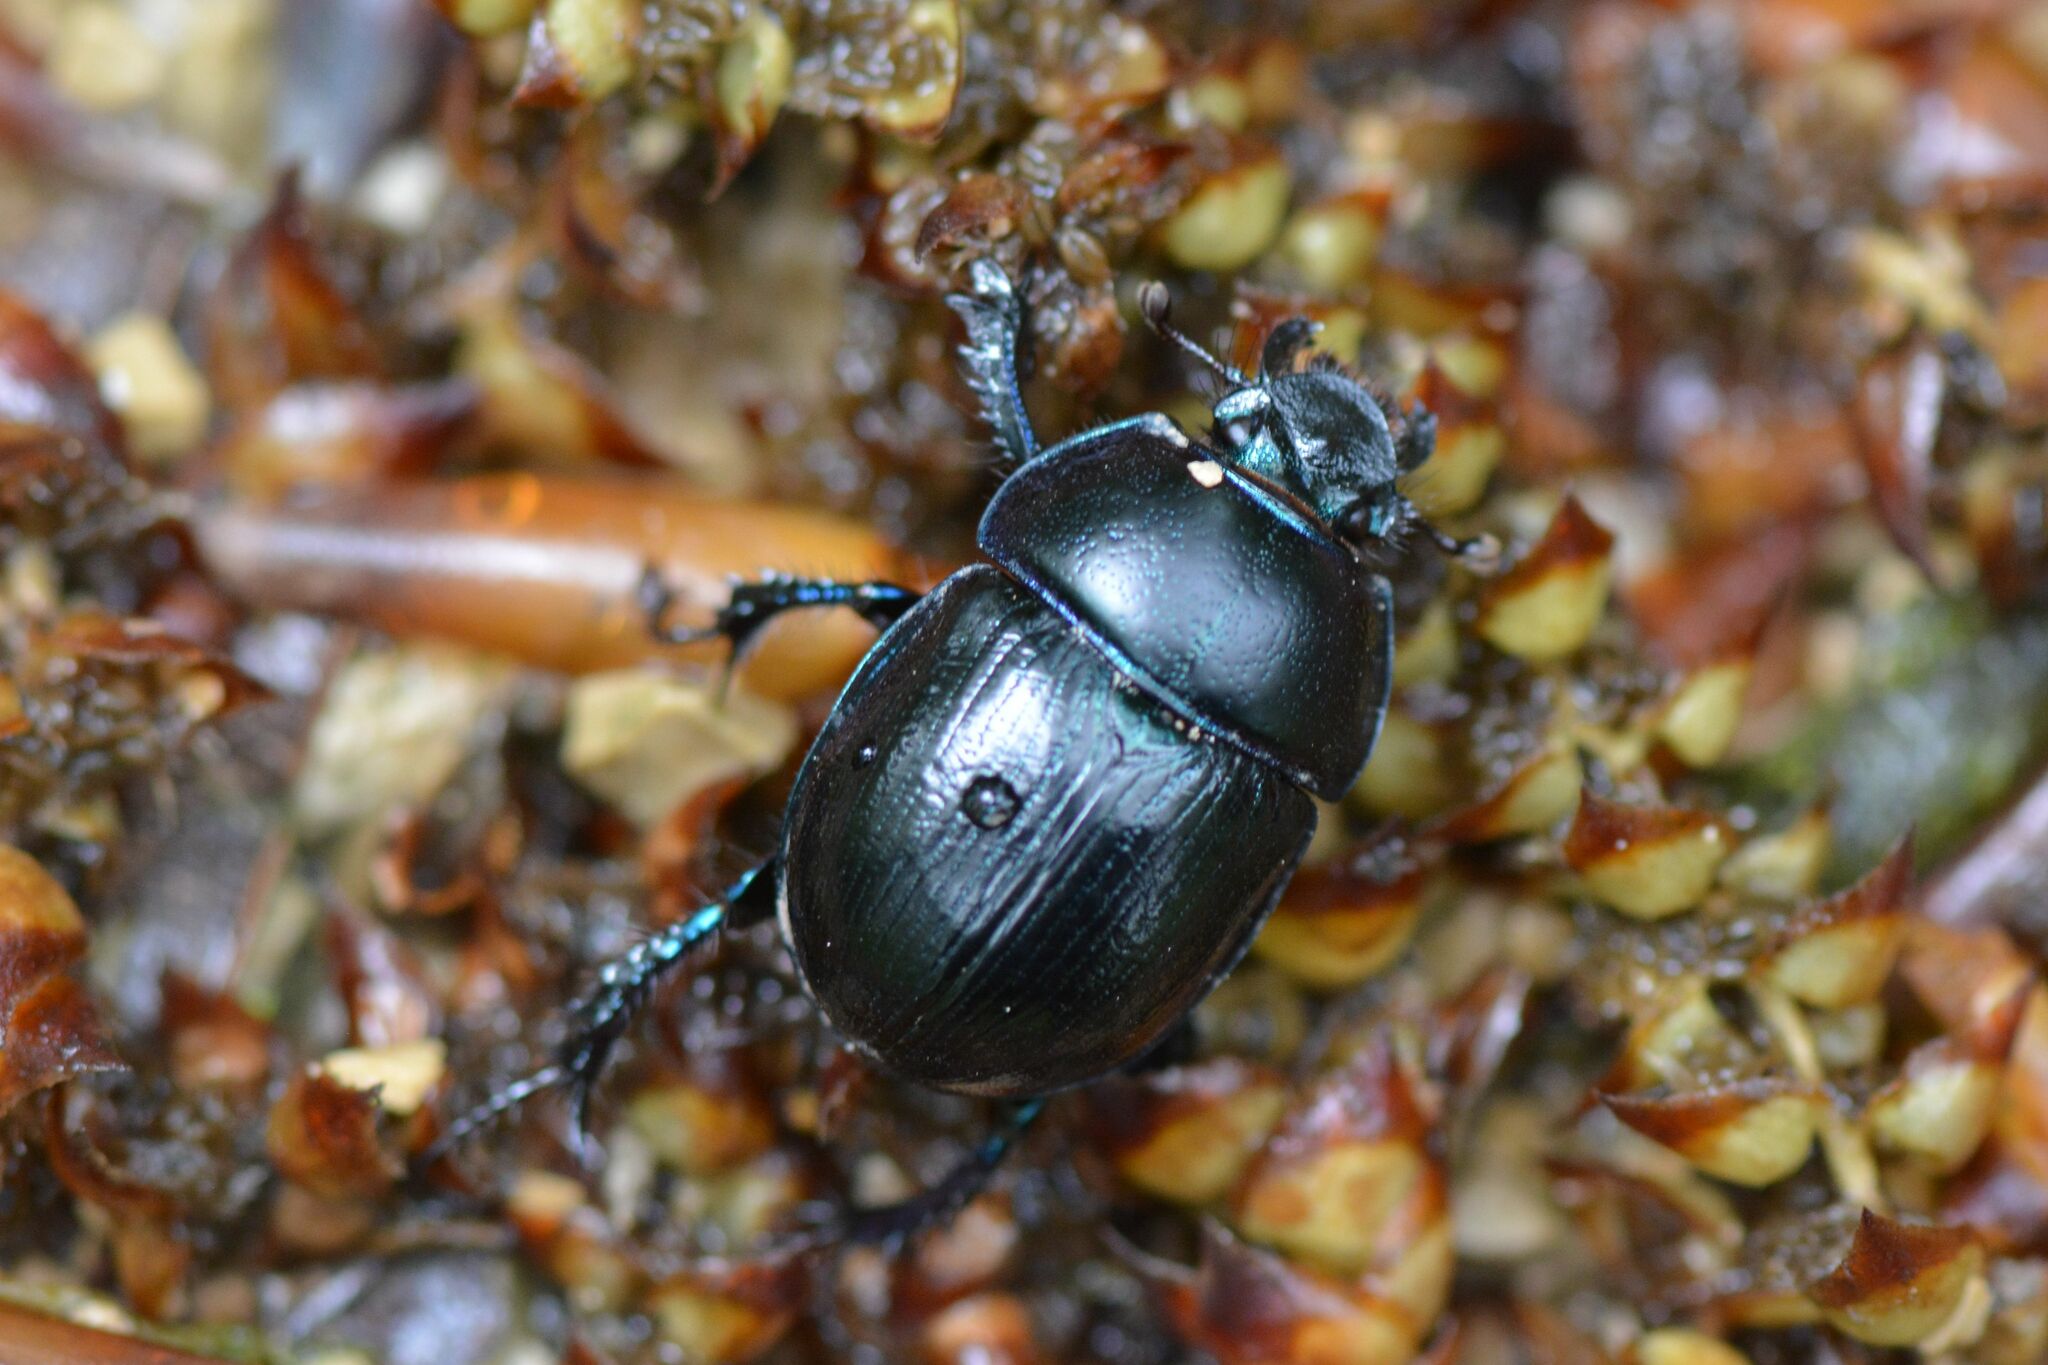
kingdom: Animalia
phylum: Arthropoda
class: Insecta
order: Coleoptera
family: Geotrupidae
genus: Anoplotrupes
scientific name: Anoplotrupes stercorosus
